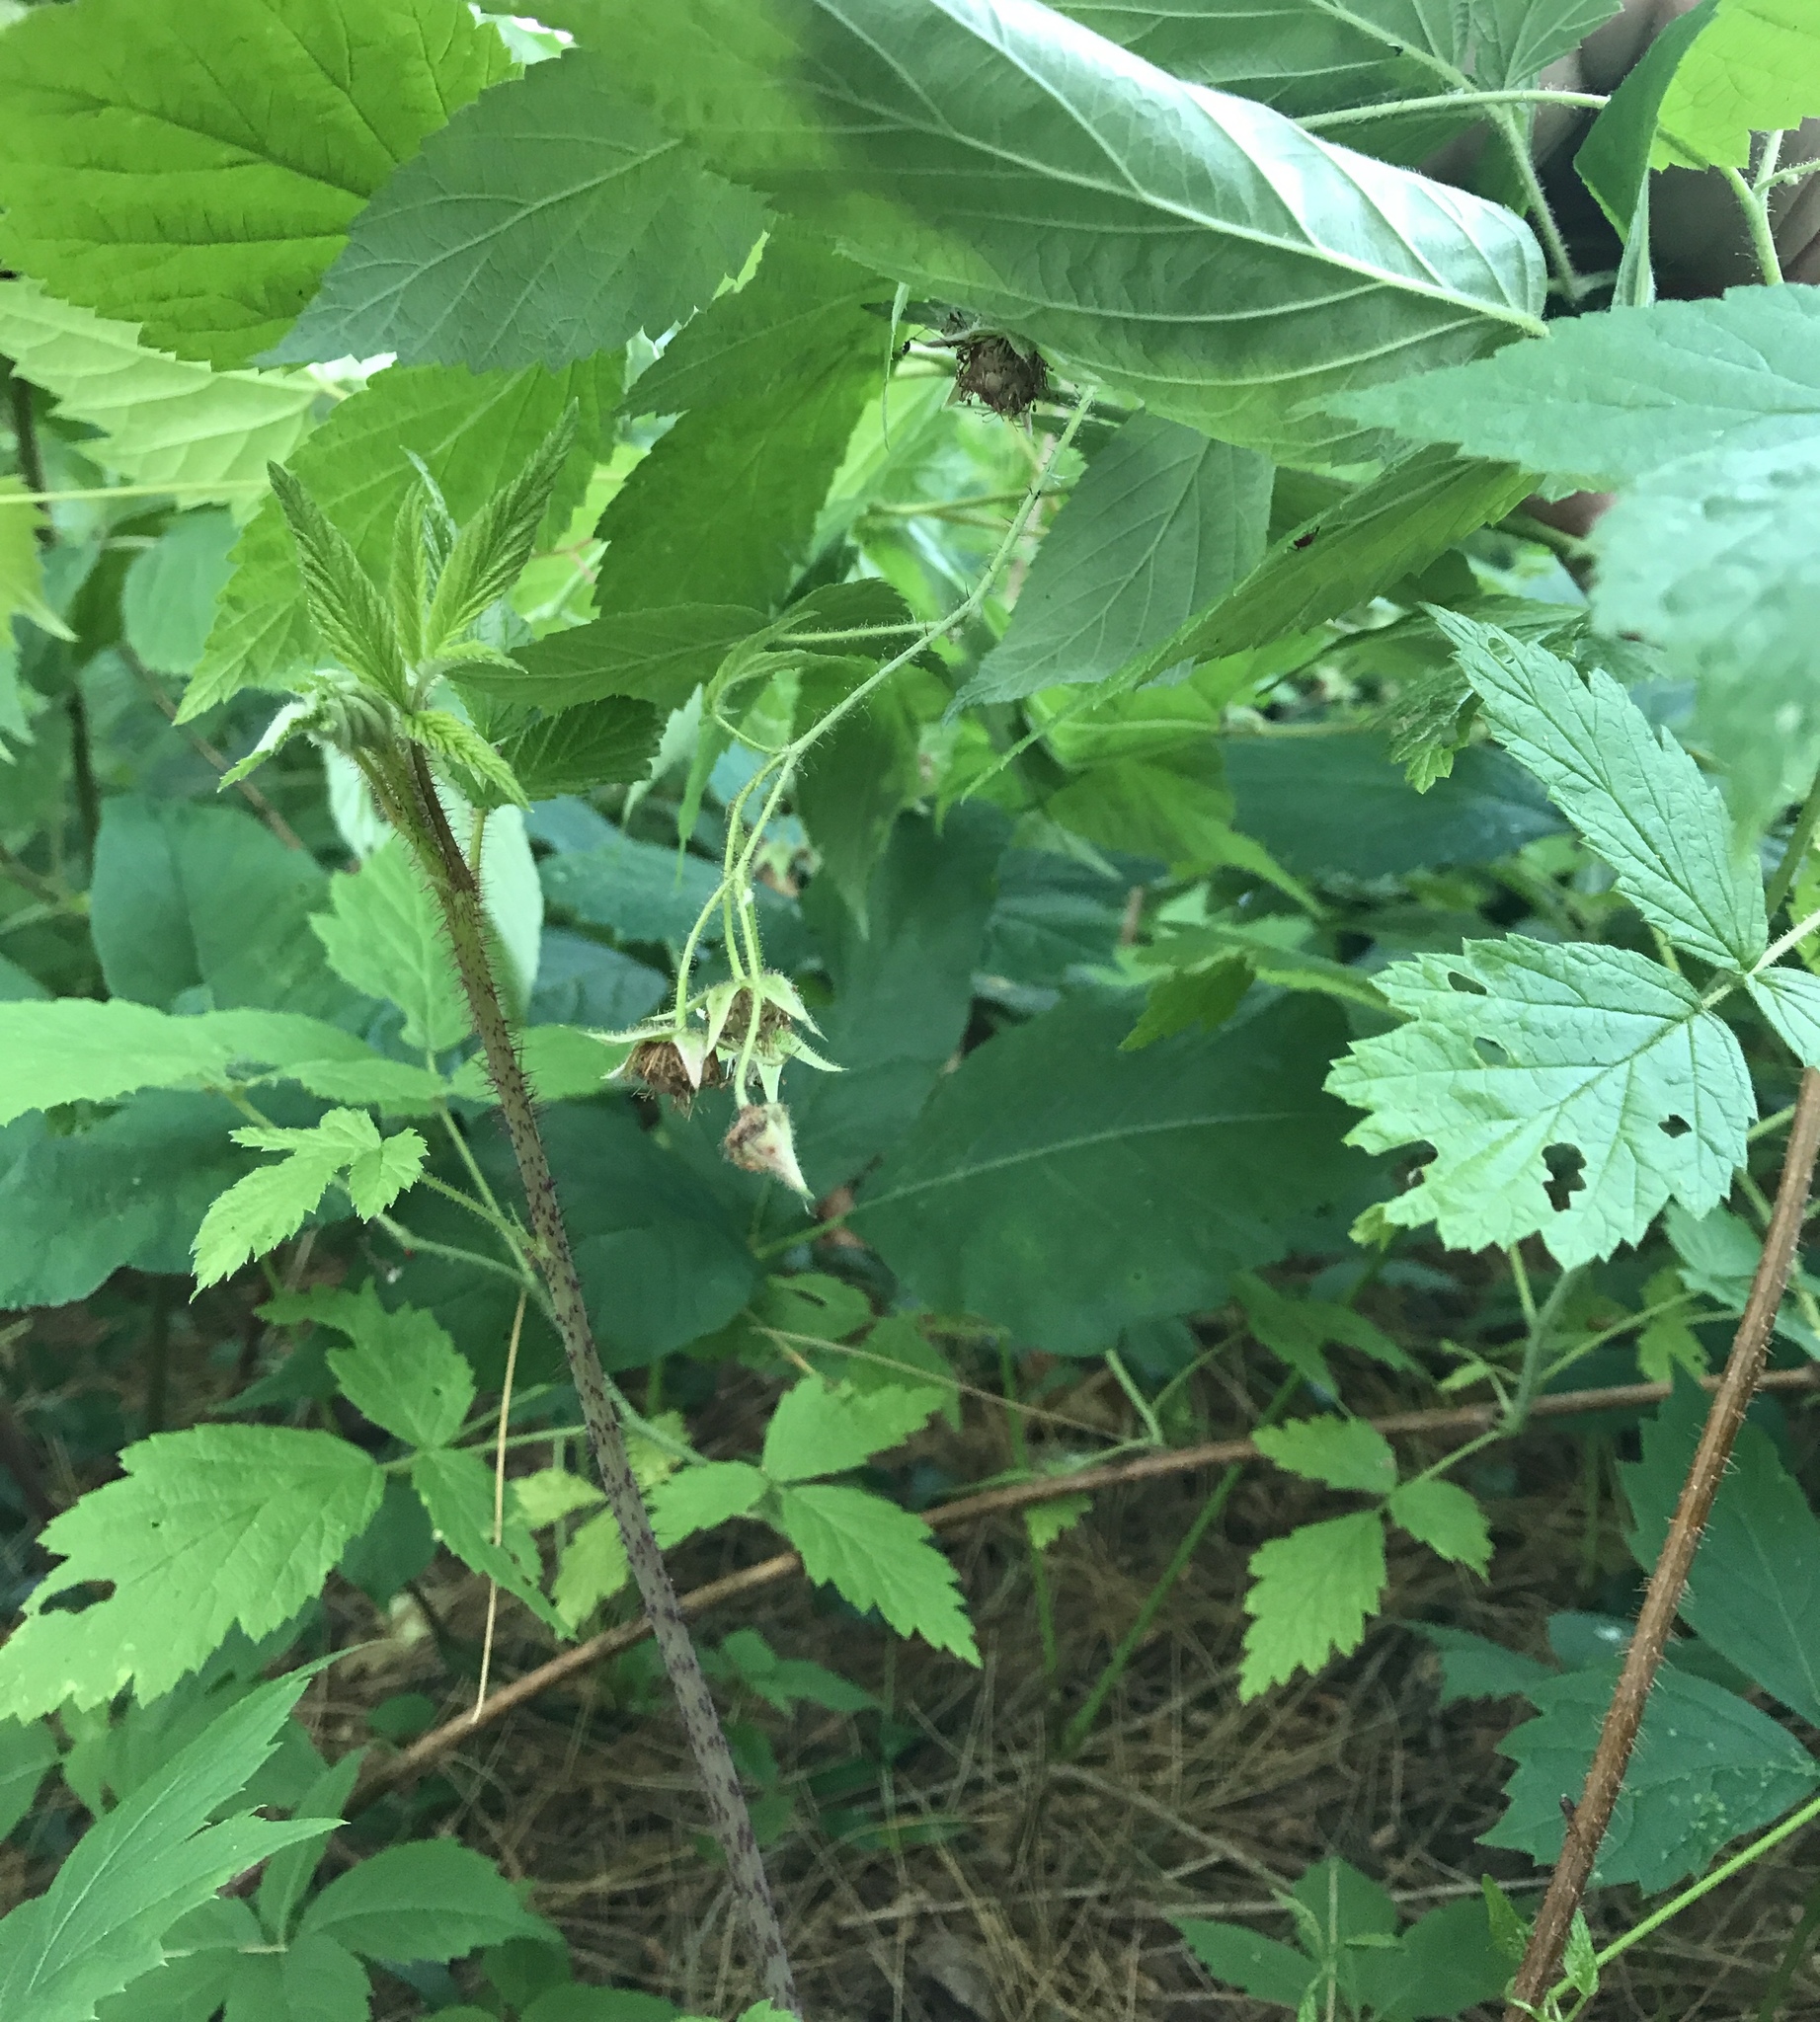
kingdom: Plantae
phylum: Tracheophyta
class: Magnoliopsida
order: Rosales
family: Rosaceae
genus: Rubus
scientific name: Rubus idaeus
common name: Raspberry
